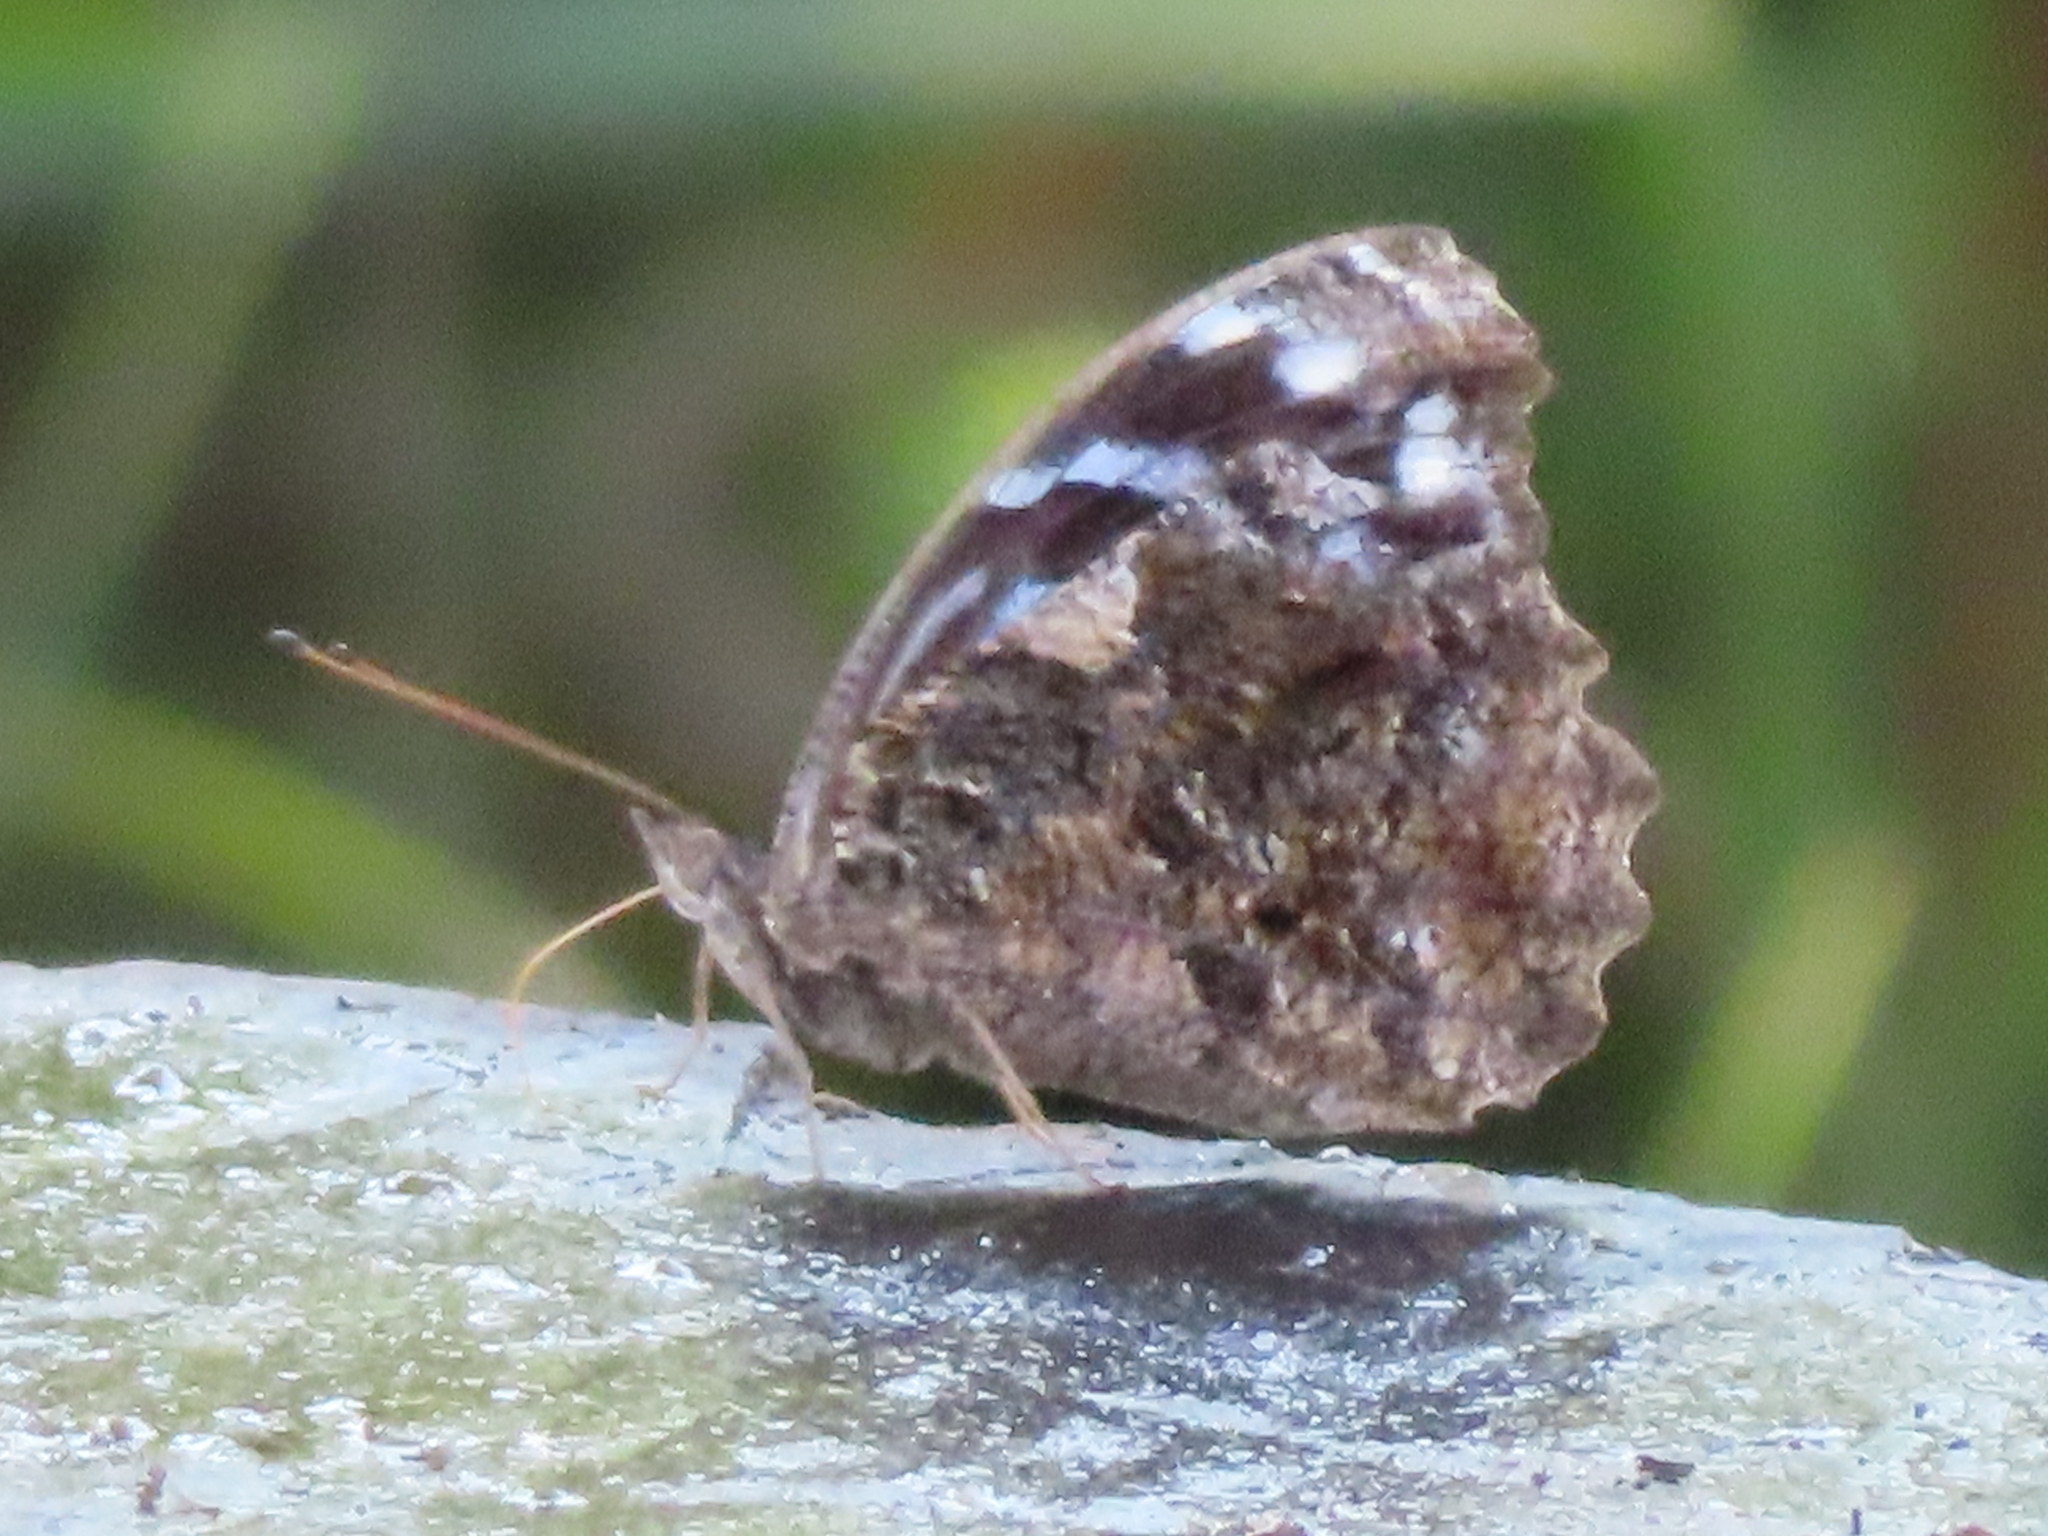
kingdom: Animalia
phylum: Arthropoda
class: Insecta
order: Lepidoptera
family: Nymphalidae
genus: Myscelia
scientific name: Myscelia ethusa
